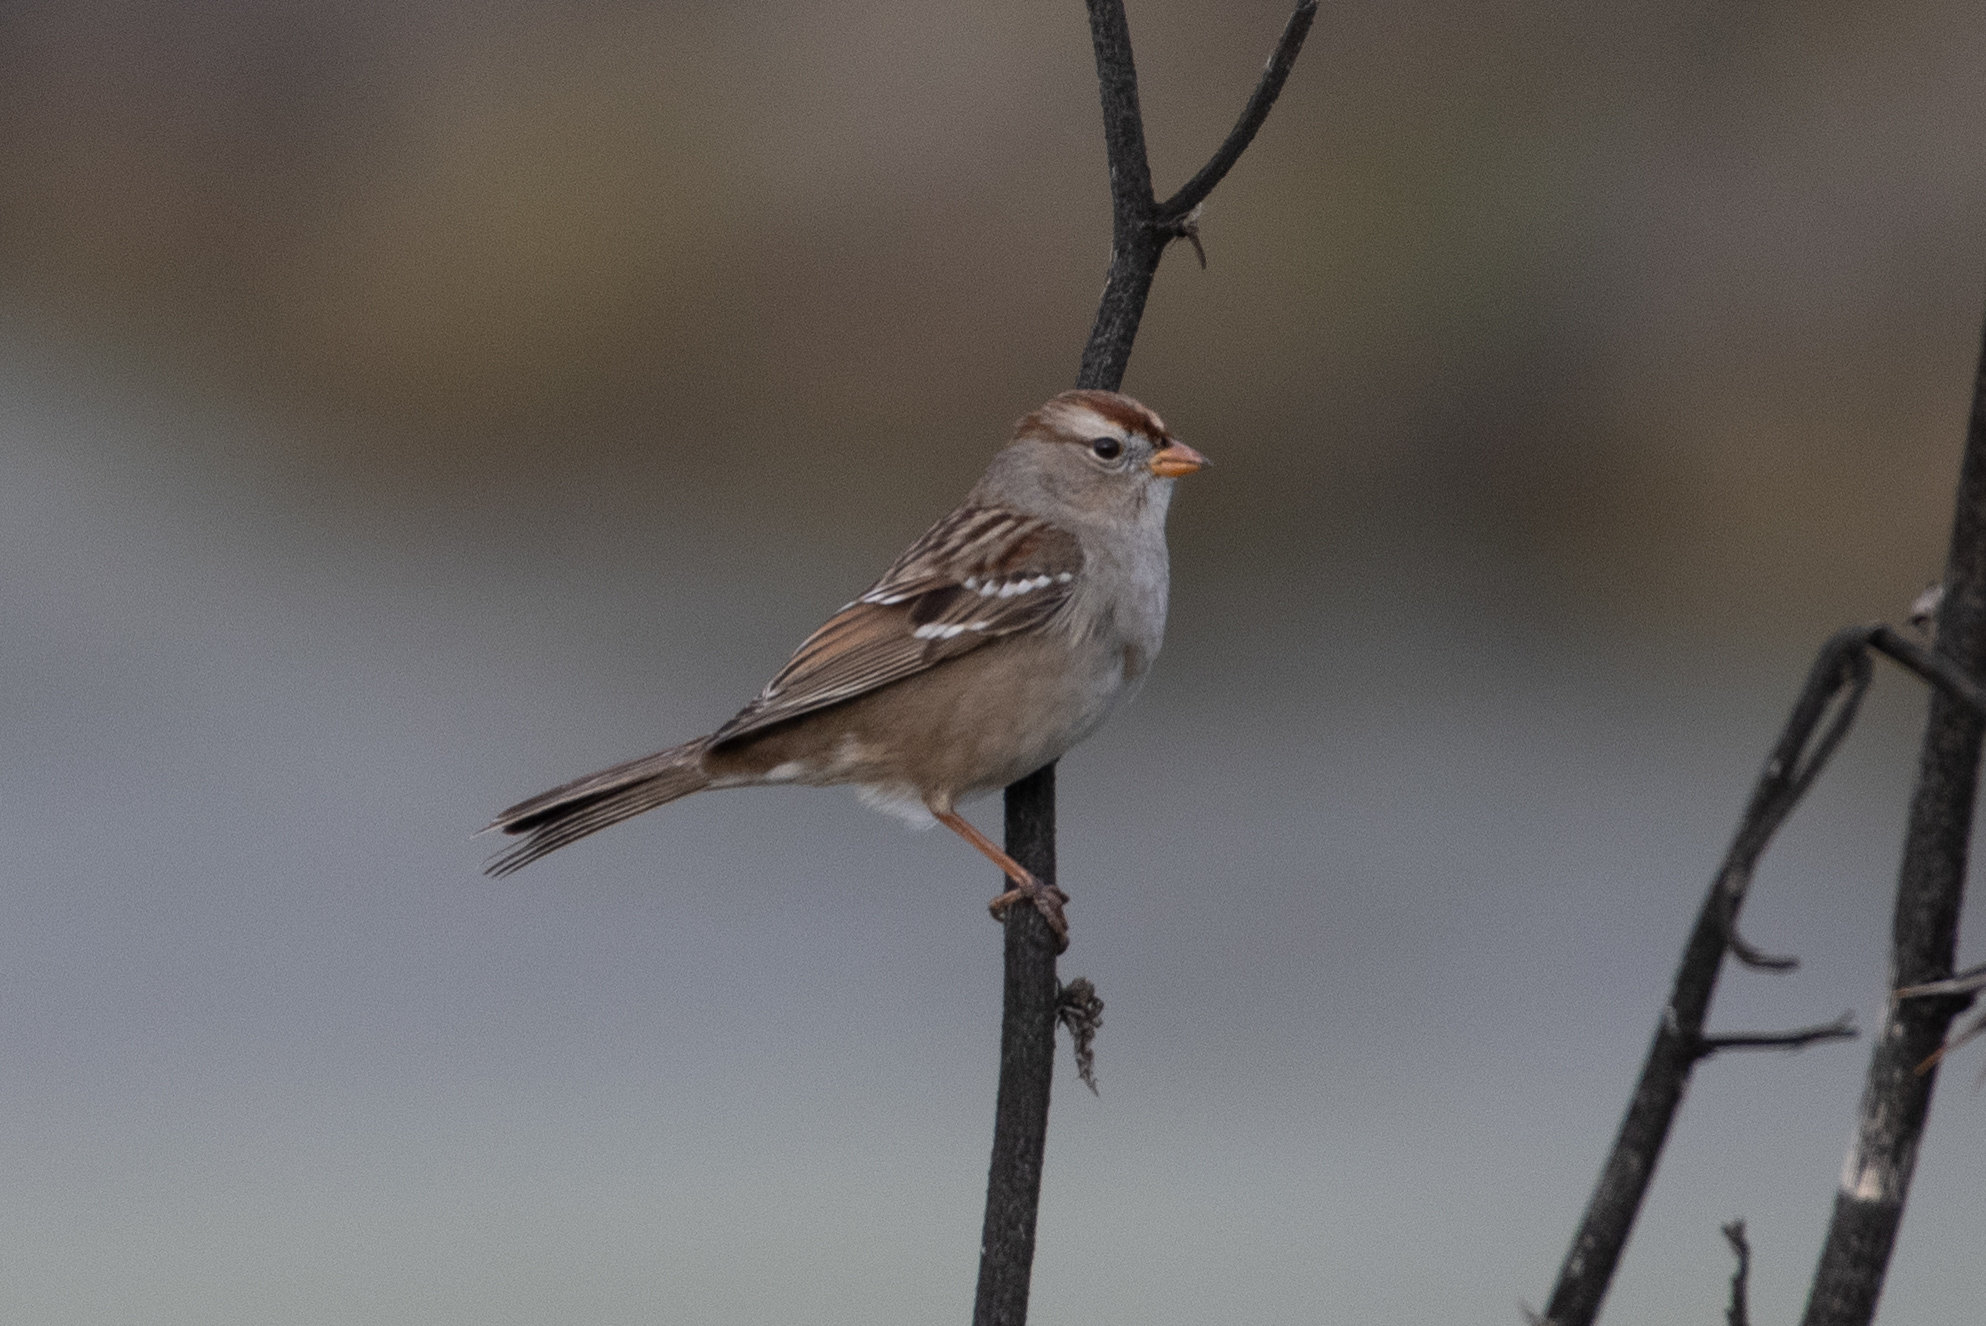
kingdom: Animalia
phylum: Chordata
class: Aves
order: Passeriformes
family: Passerellidae
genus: Zonotrichia
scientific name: Zonotrichia leucophrys
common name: White-crowned sparrow
